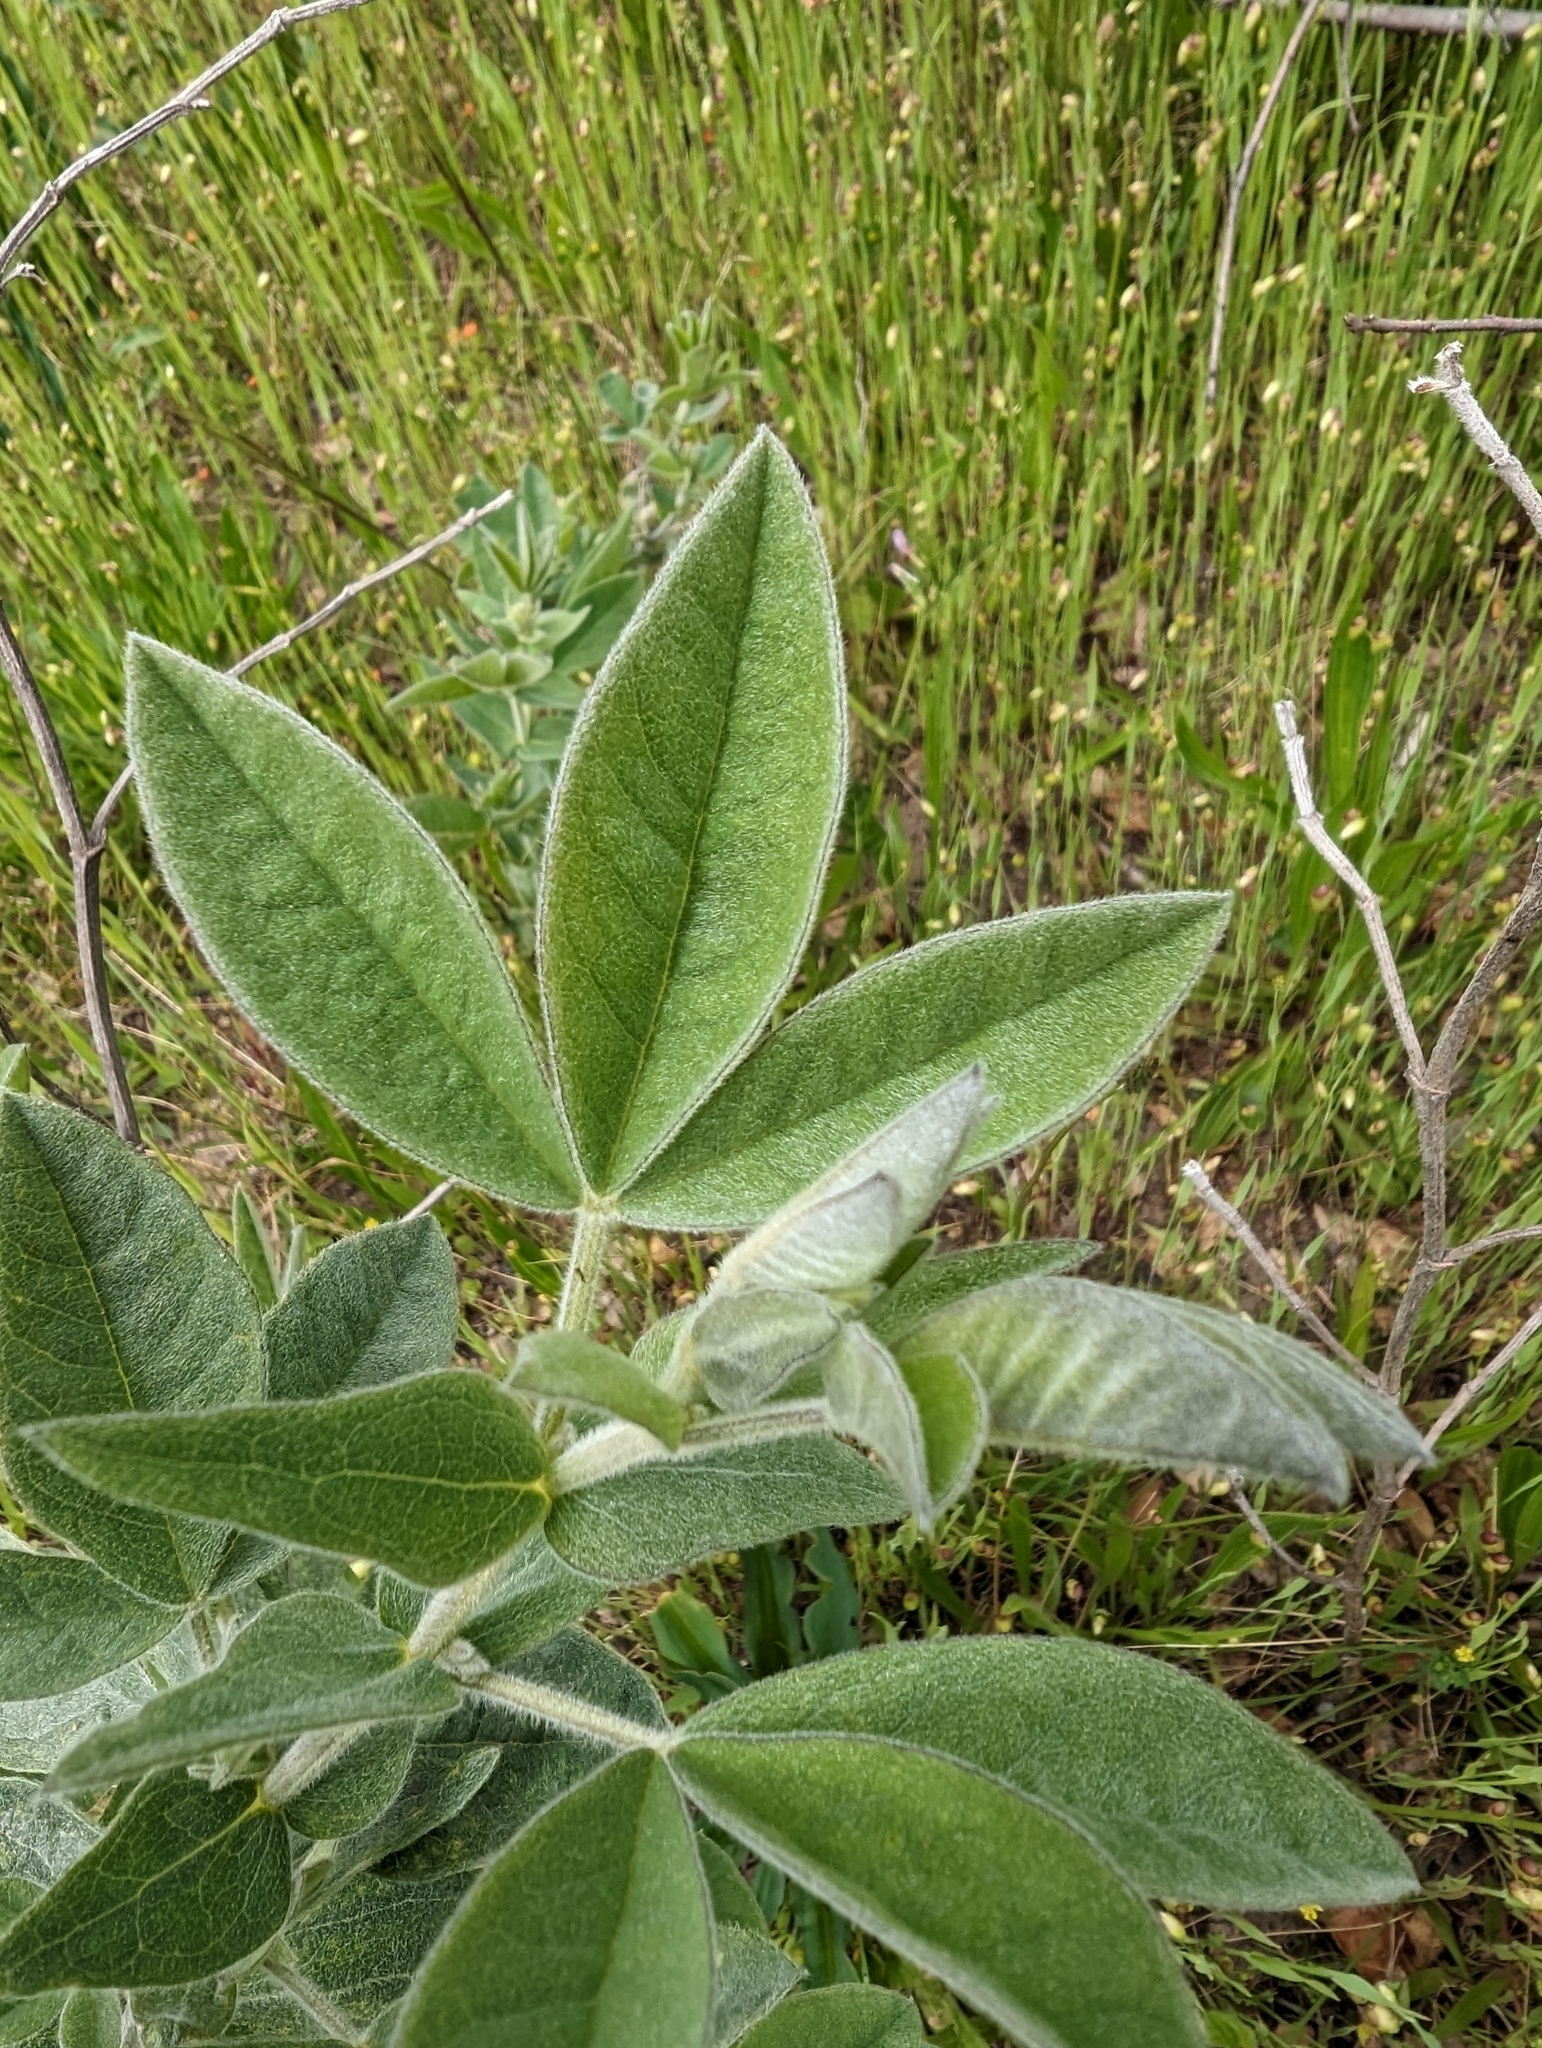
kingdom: Plantae
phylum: Tracheophyta
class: Magnoliopsida
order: Fabales
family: Fabaceae
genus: Thermopsis
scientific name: Thermopsis californica
